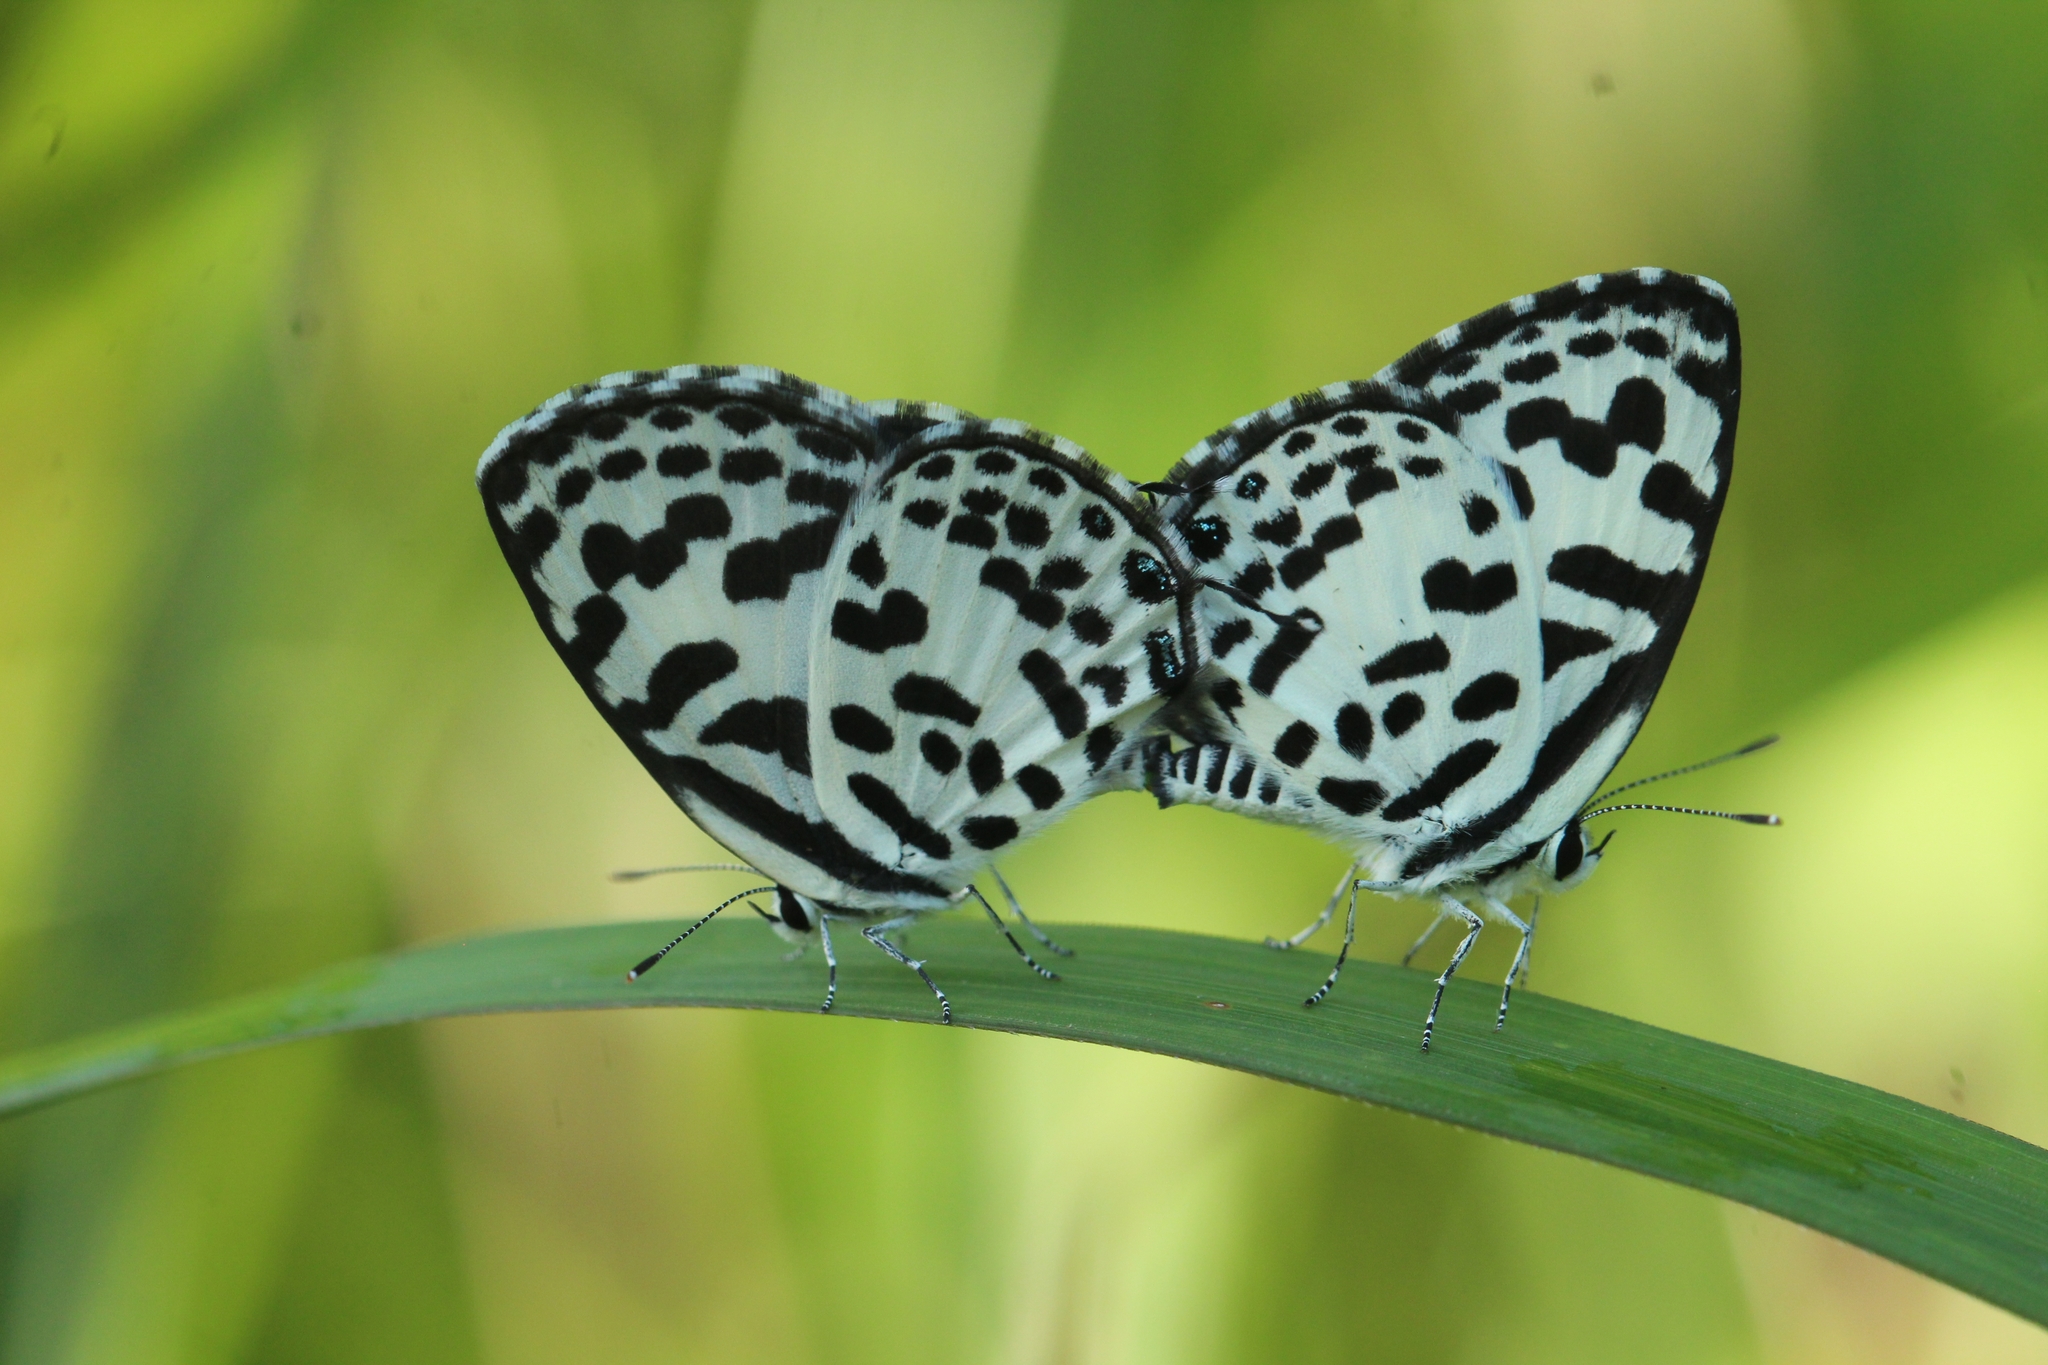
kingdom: Animalia
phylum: Arthropoda
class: Insecta
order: Lepidoptera
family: Lycaenidae
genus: Castalius
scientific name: Castalius rosimon
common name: Common pierrot
